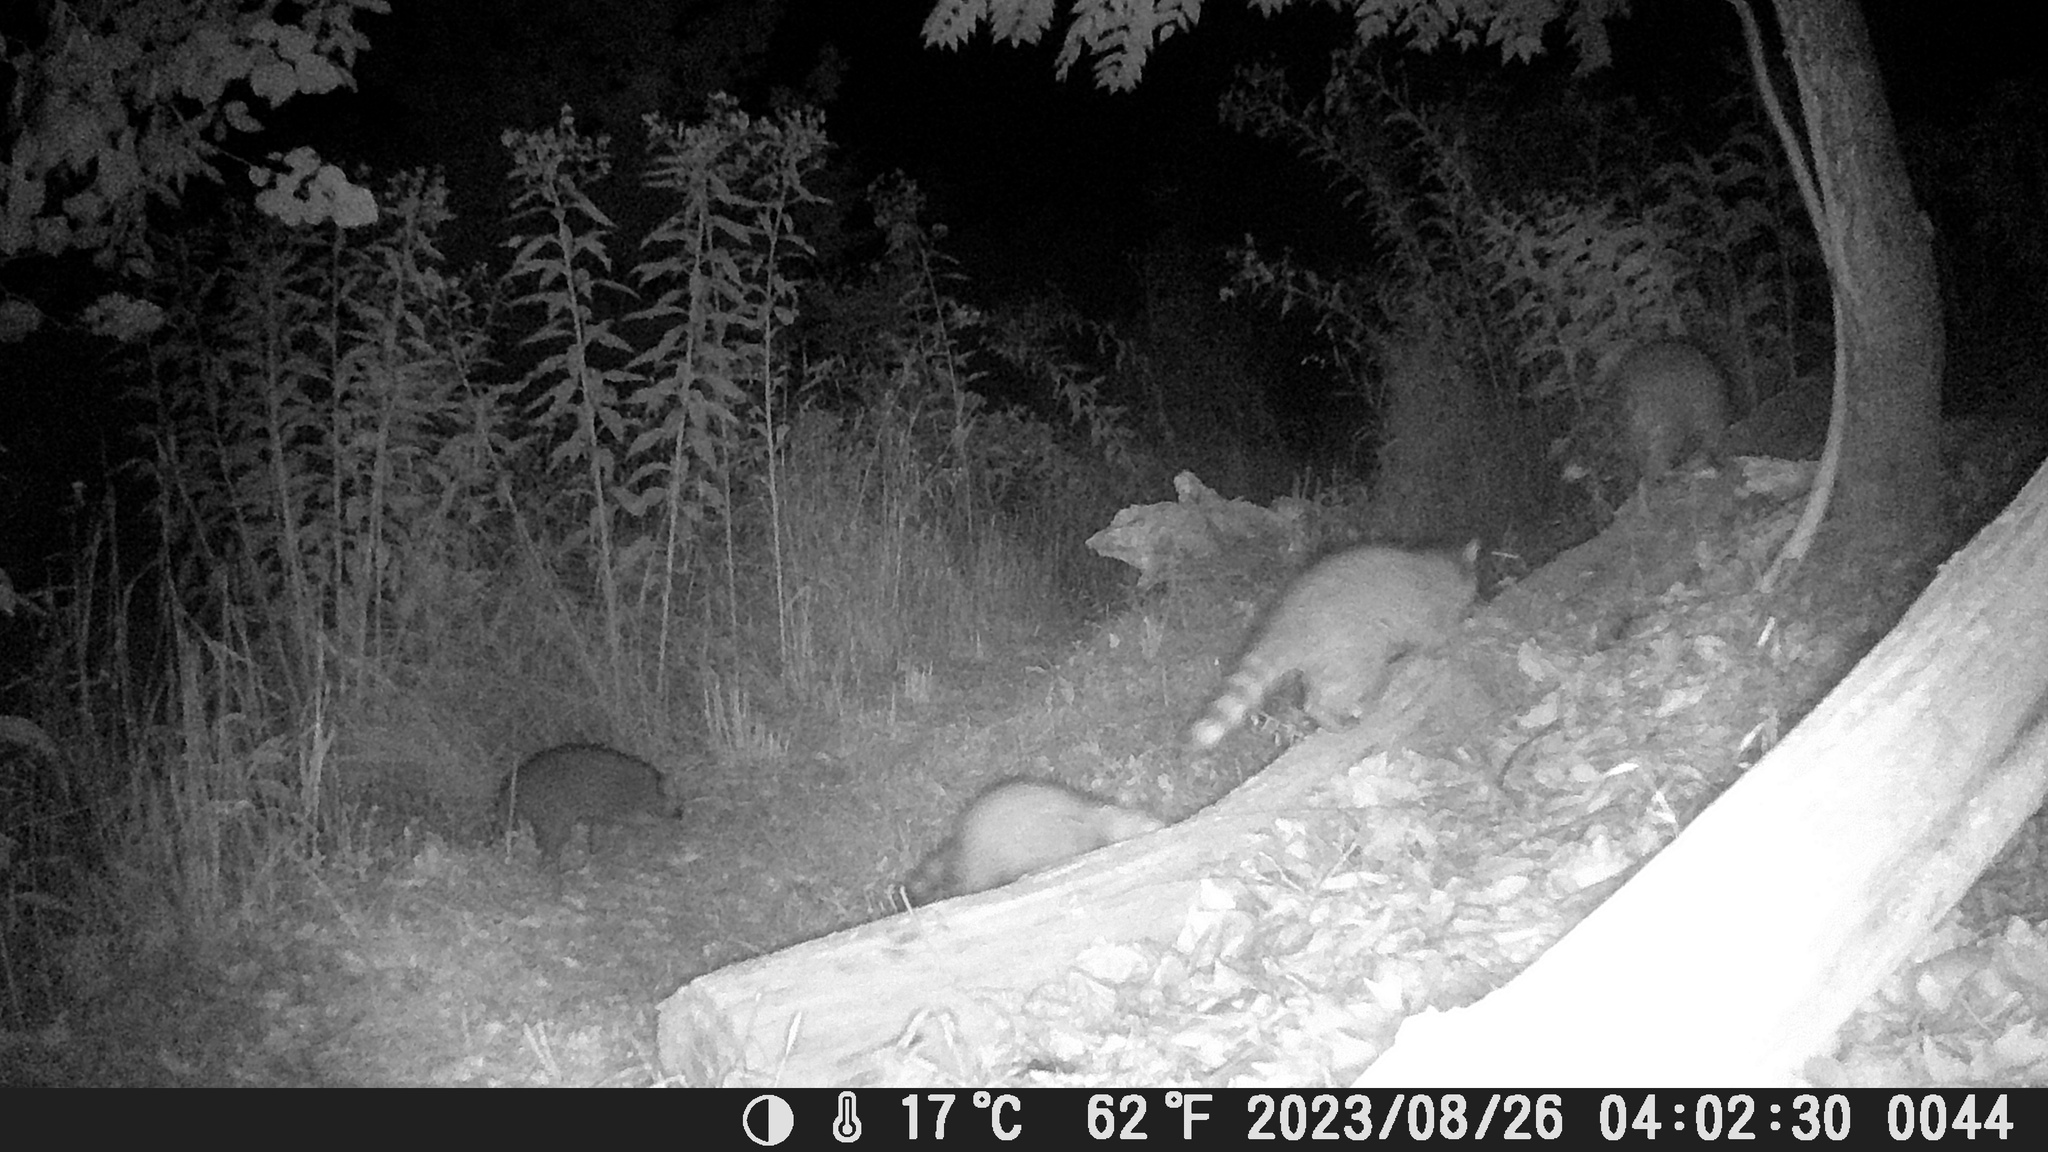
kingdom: Animalia
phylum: Chordata
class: Mammalia
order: Carnivora
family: Procyonidae
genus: Procyon
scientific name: Procyon lotor
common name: Raccoon
